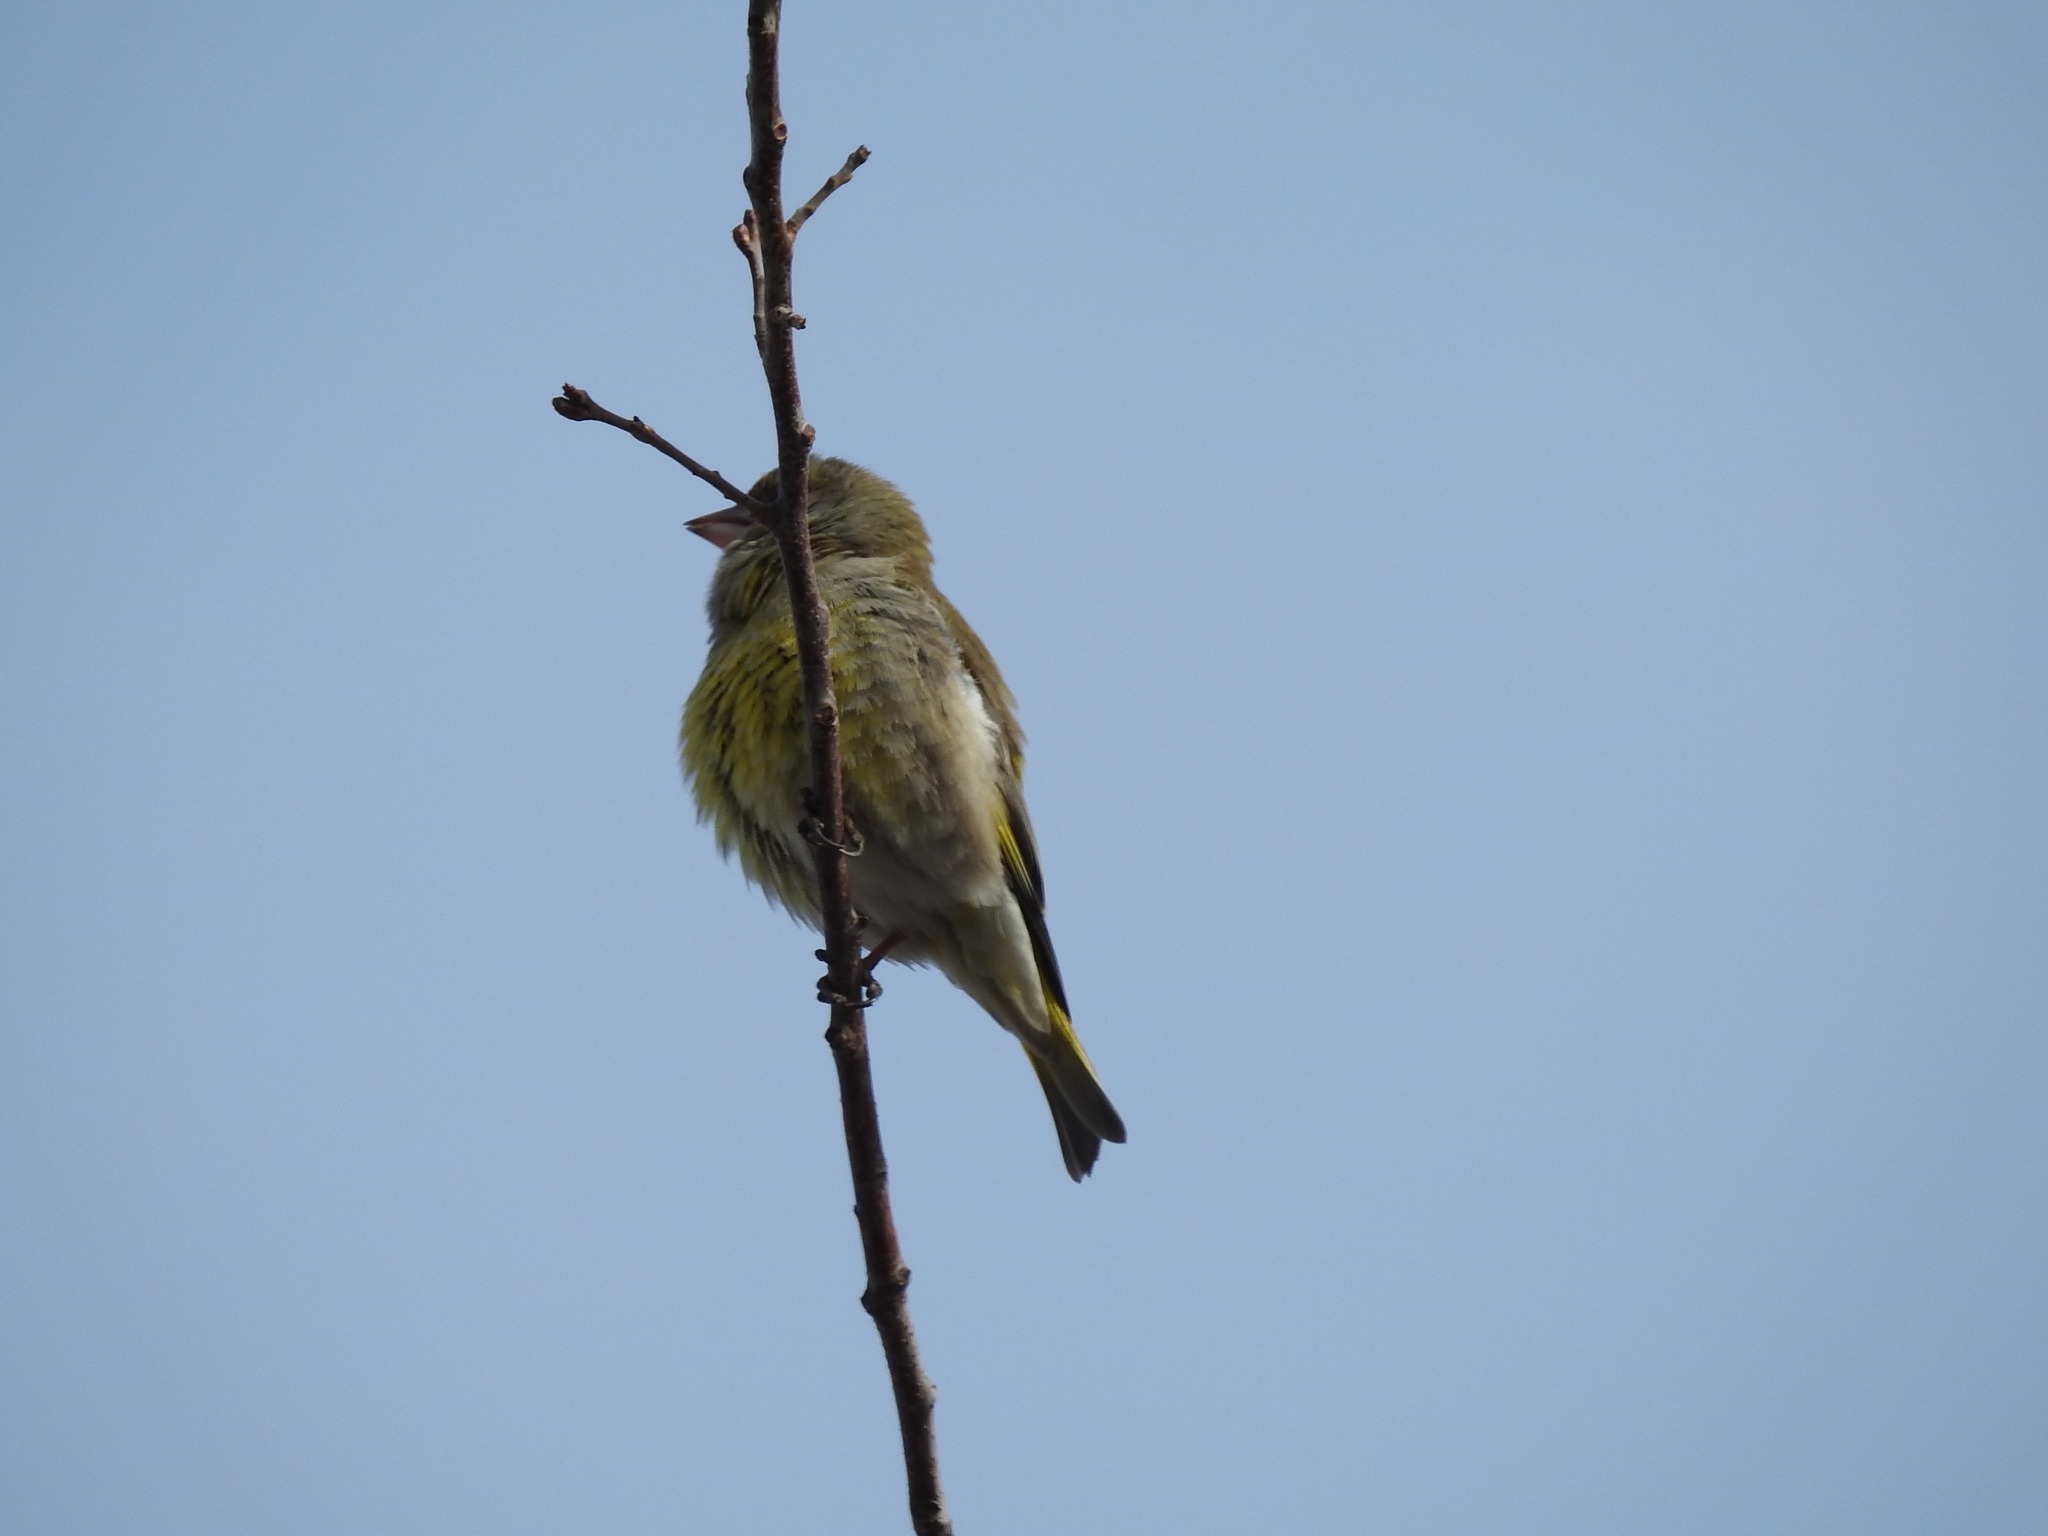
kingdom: Plantae
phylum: Tracheophyta
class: Liliopsida
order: Poales
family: Poaceae
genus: Chloris
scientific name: Chloris chloris
